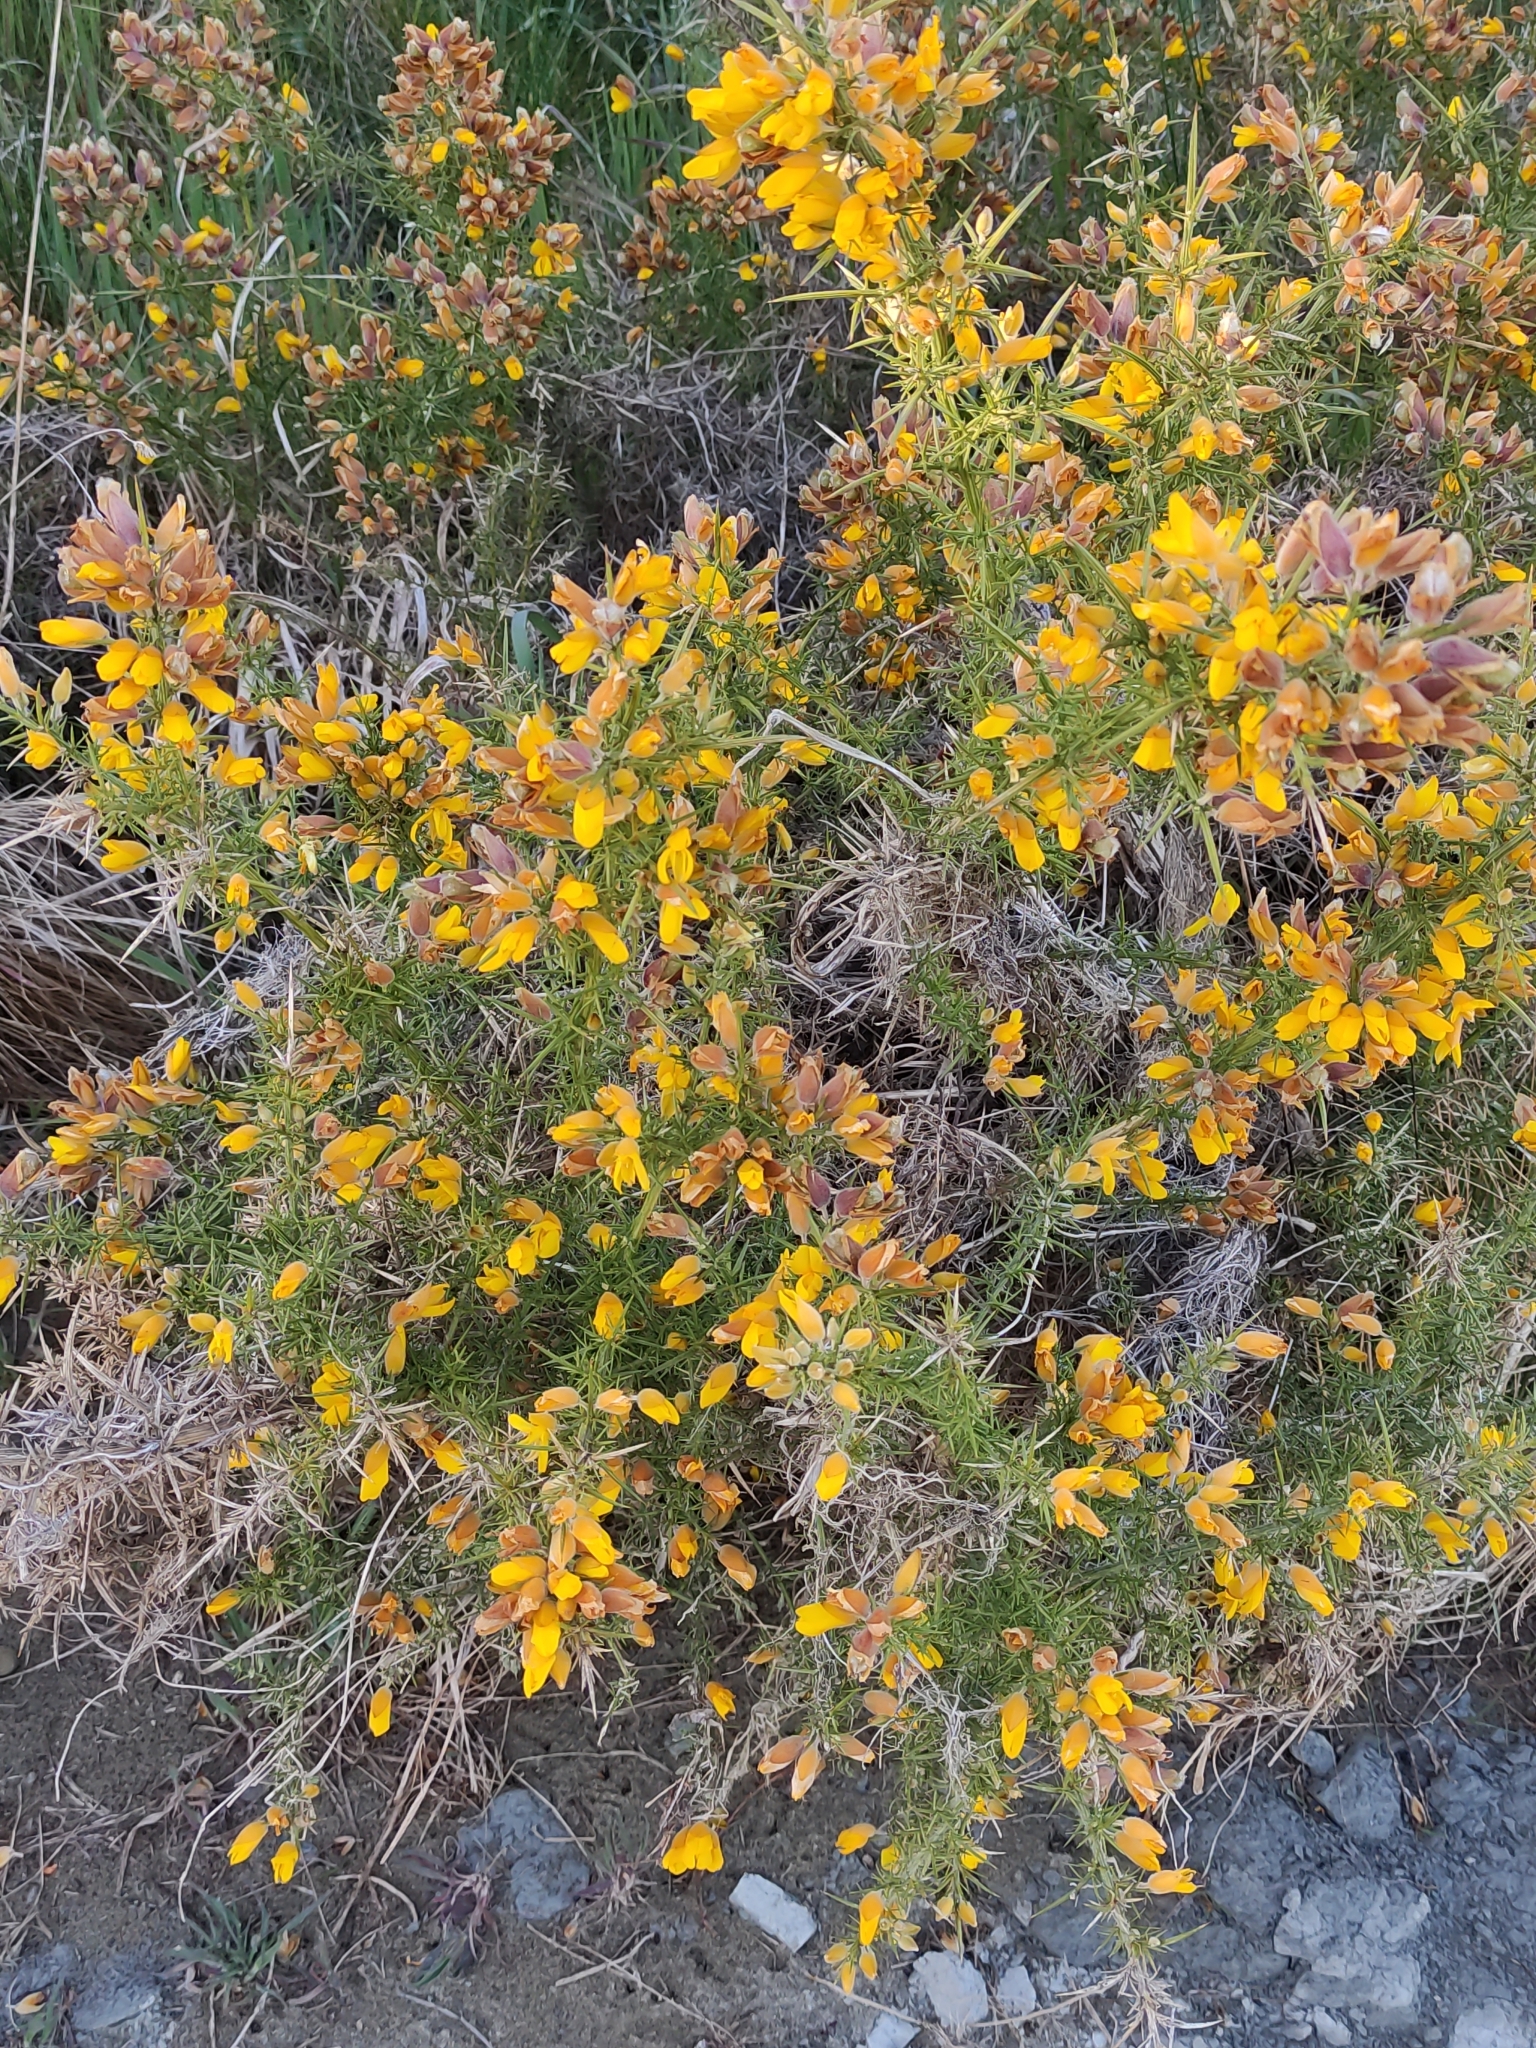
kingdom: Plantae
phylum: Tracheophyta
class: Magnoliopsida
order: Fabales
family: Fabaceae
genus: Ulex
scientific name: Ulex europaeus
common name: Common gorse
